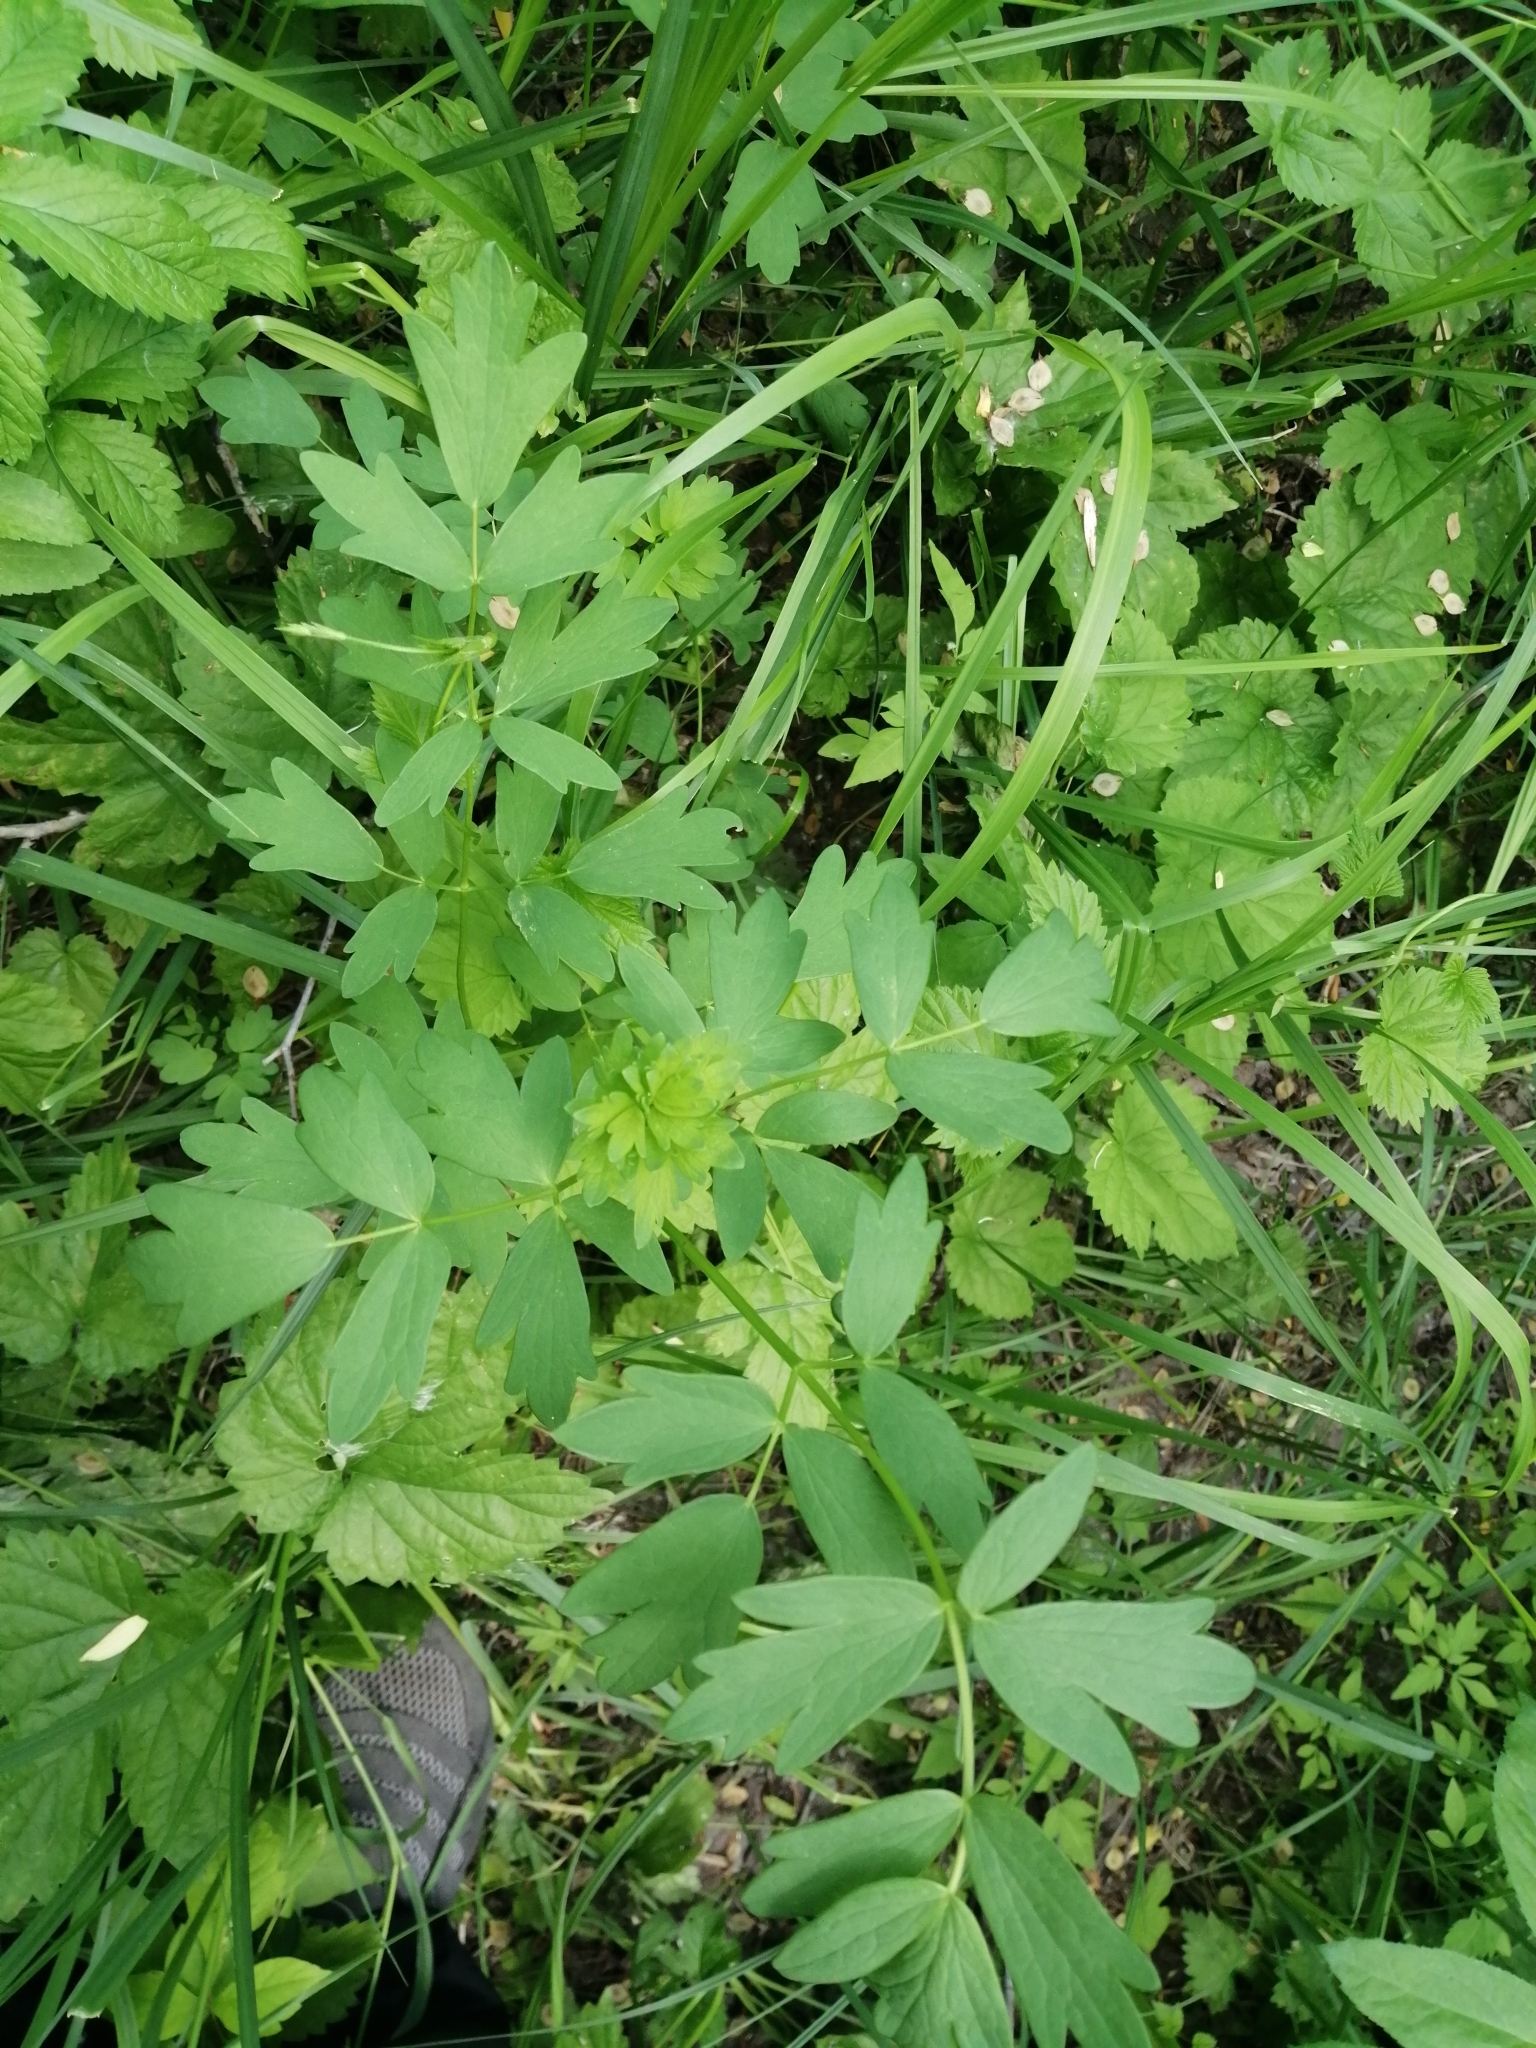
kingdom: Plantae
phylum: Tracheophyta
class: Magnoliopsida
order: Ranunculales
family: Ranunculaceae
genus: Thalictrum
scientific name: Thalictrum flavum
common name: Common meadow-rue
